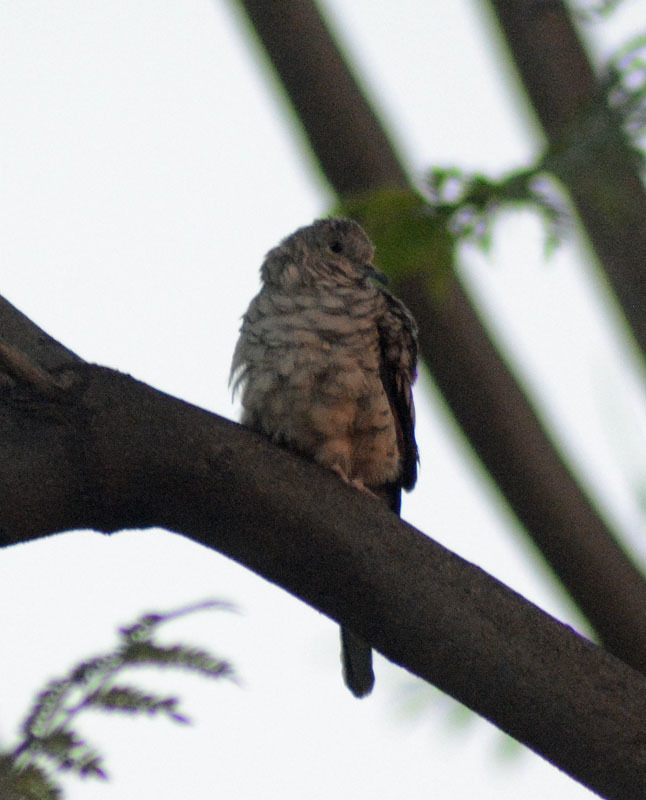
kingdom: Animalia
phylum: Chordata
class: Aves
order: Columbiformes
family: Columbidae
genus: Columbina
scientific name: Columbina inca
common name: Inca dove
